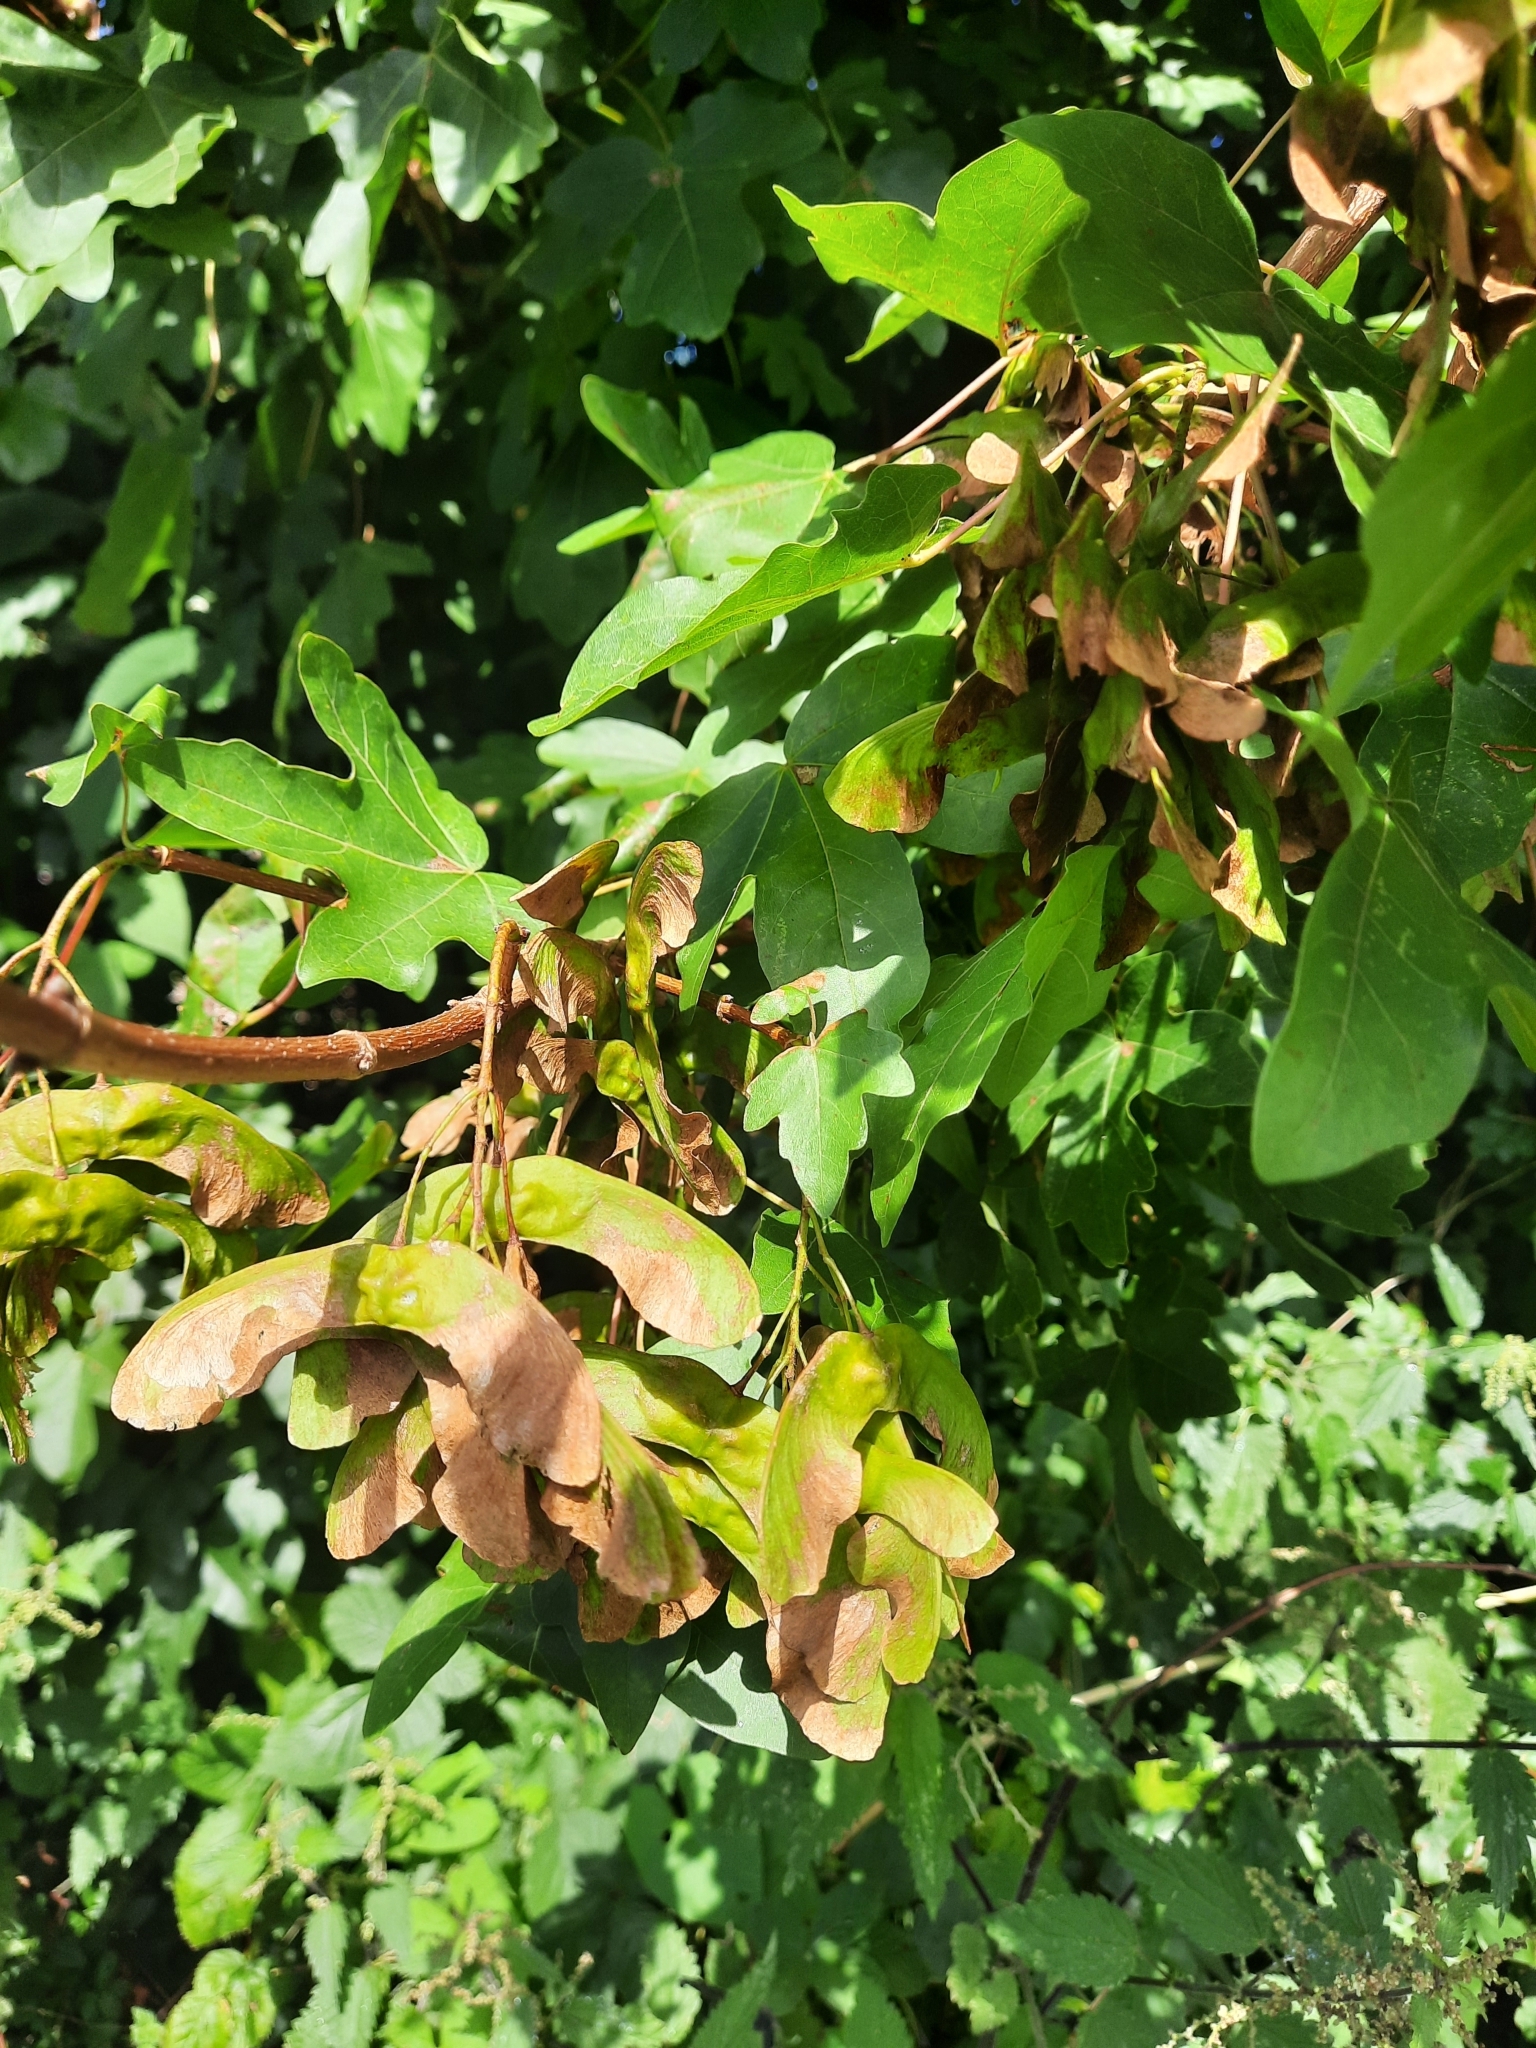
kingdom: Plantae
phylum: Tracheophyta
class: Magnoliopsida
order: Sapindales
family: Sapindaceae
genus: Acer
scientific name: Acer campestre
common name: Field maple
